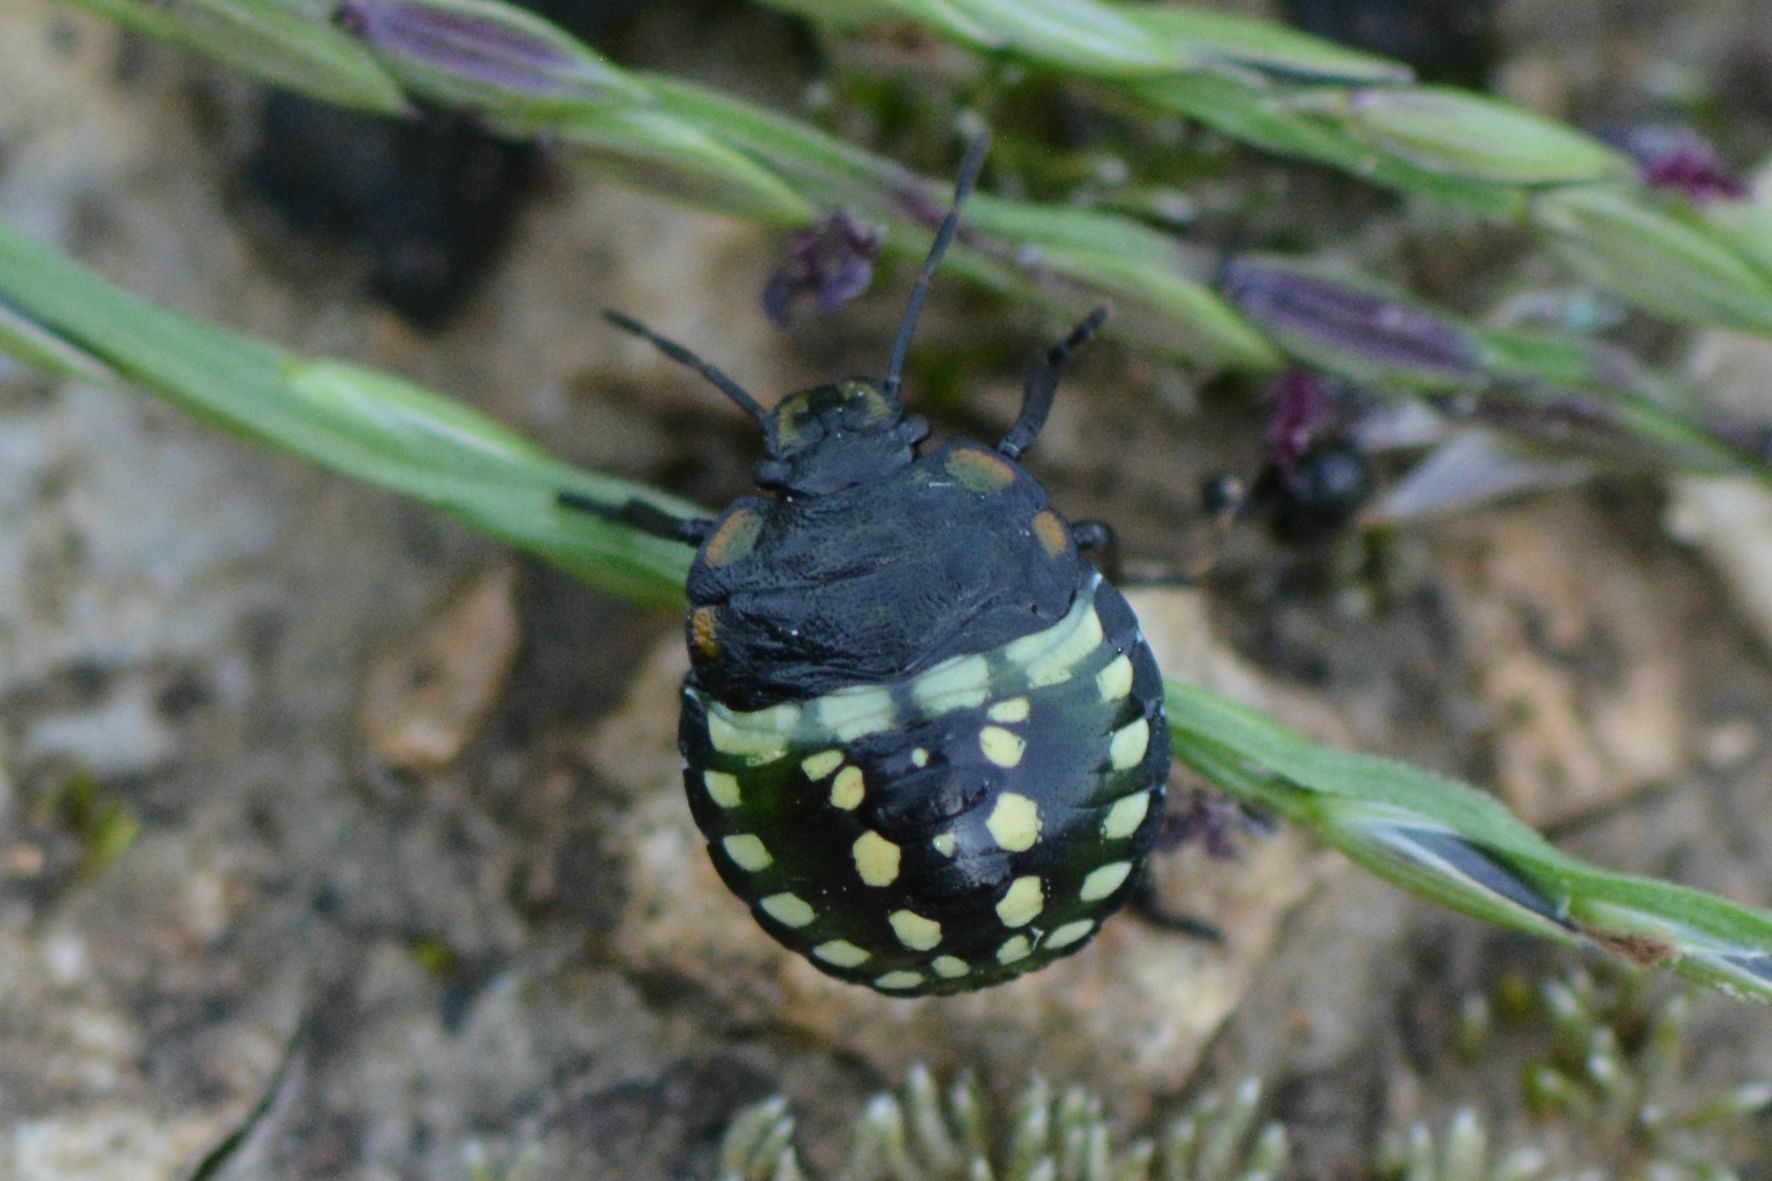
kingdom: Animalia
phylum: Arthropoda
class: Insecta
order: Hemiptera
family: Pentatomidae
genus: Nezara
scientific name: Nezara viridula
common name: Southern green stink bug
